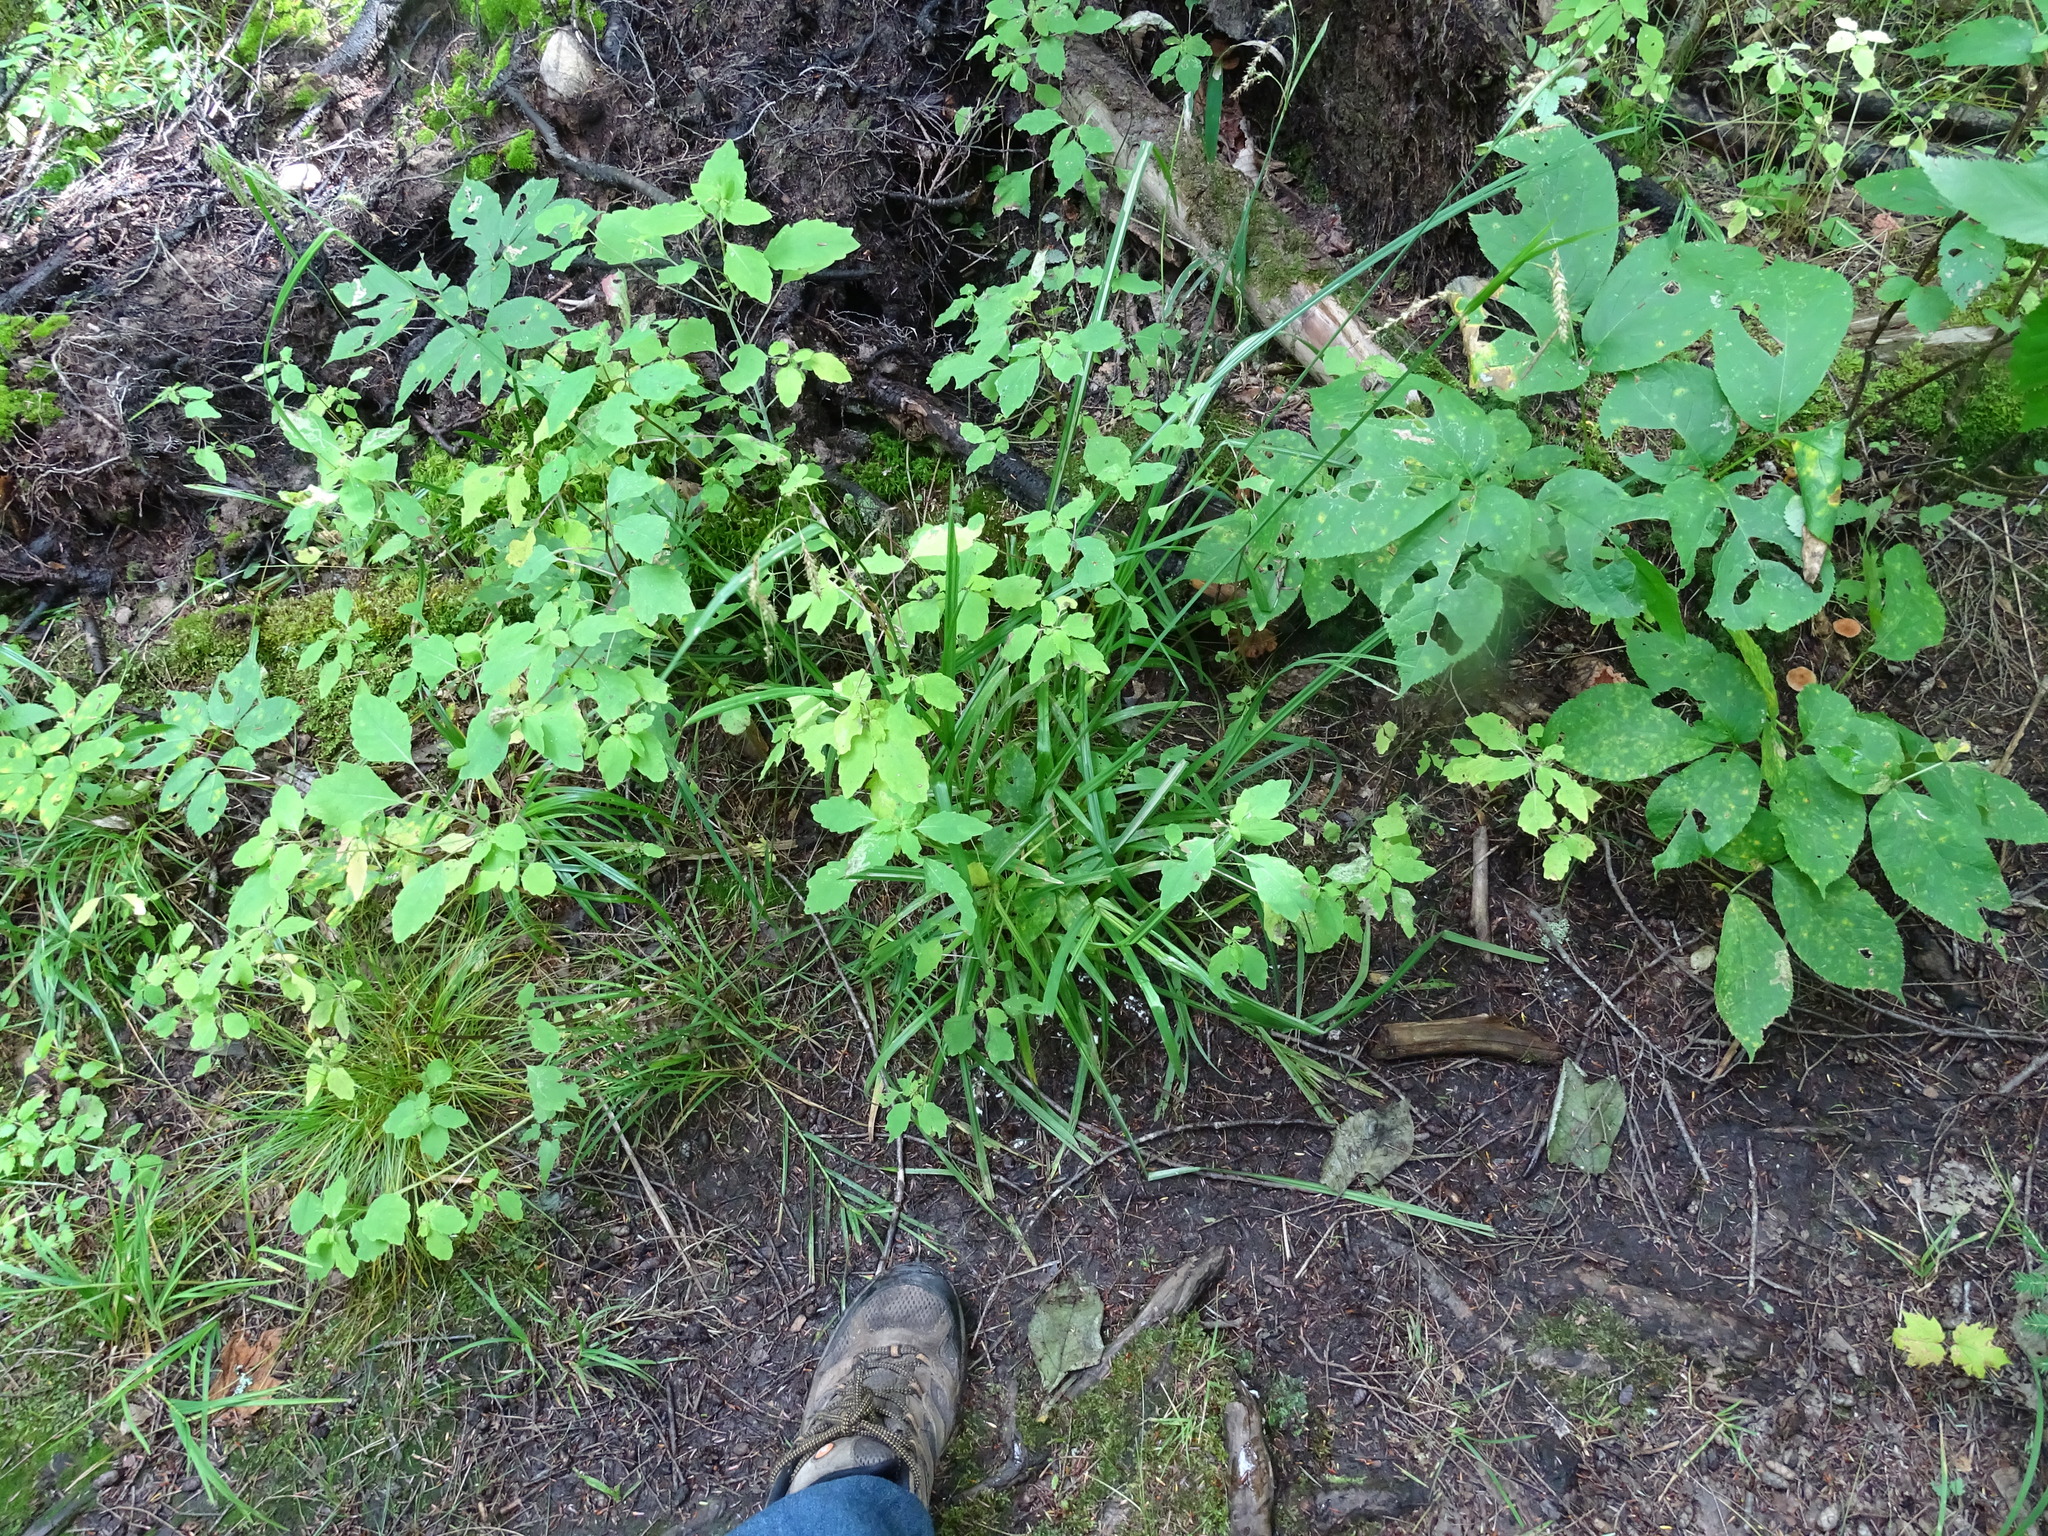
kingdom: Plantae
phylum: Tracheophyta
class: Liliopsida
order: Poales
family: Cyperaceae
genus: Carex
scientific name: Carex gynandra
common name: Nodding sedge
